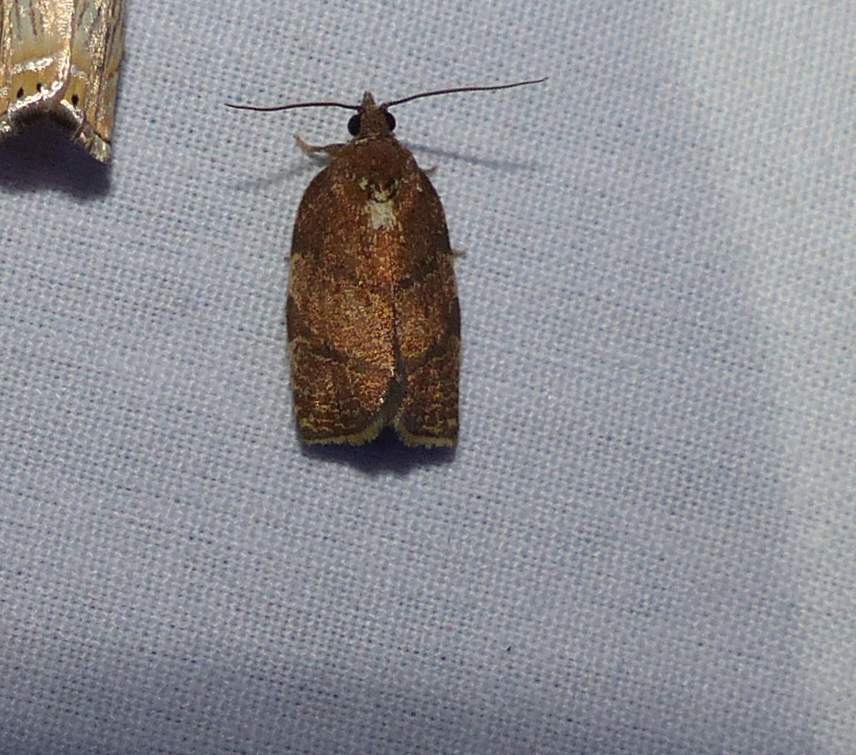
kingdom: Animalia
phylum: Arthropoda
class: Insecta
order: Lepidoptera
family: Tortricidae
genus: Argyrotaenia
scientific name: Argyrotaenia juglandana
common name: Hickory leafroller moth
